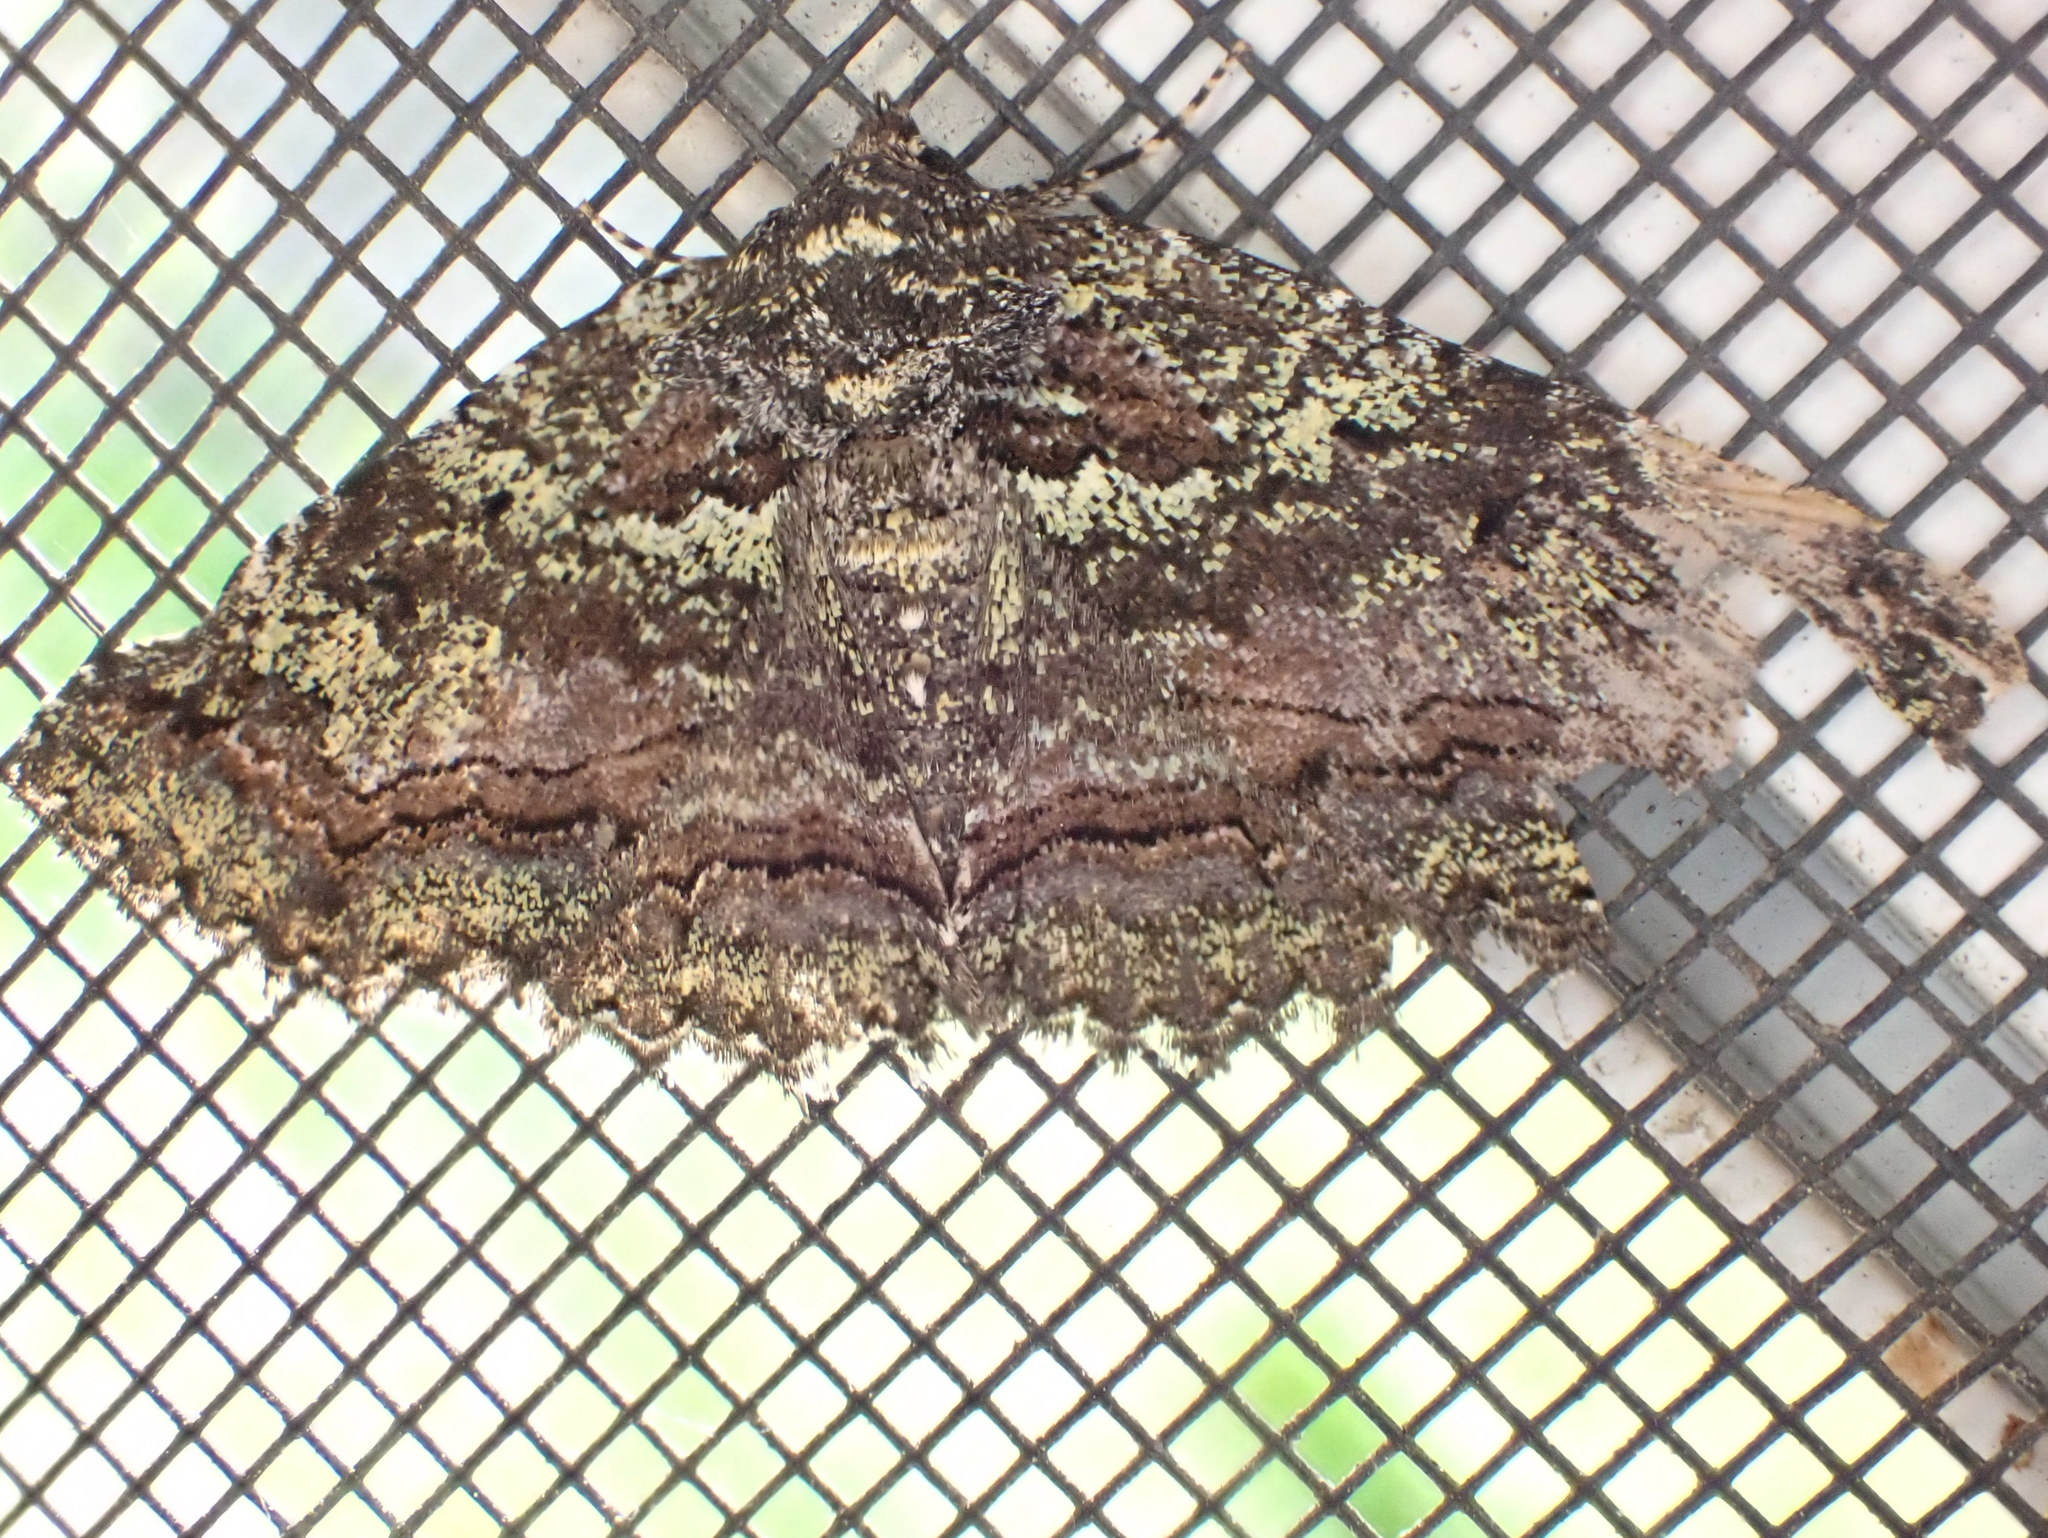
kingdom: Animalia
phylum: Arthropoda
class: Insecta
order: Lepidoptera
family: Erebidae
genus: Zale
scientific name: Zale aeruginosa
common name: Green-dusted zale moth
